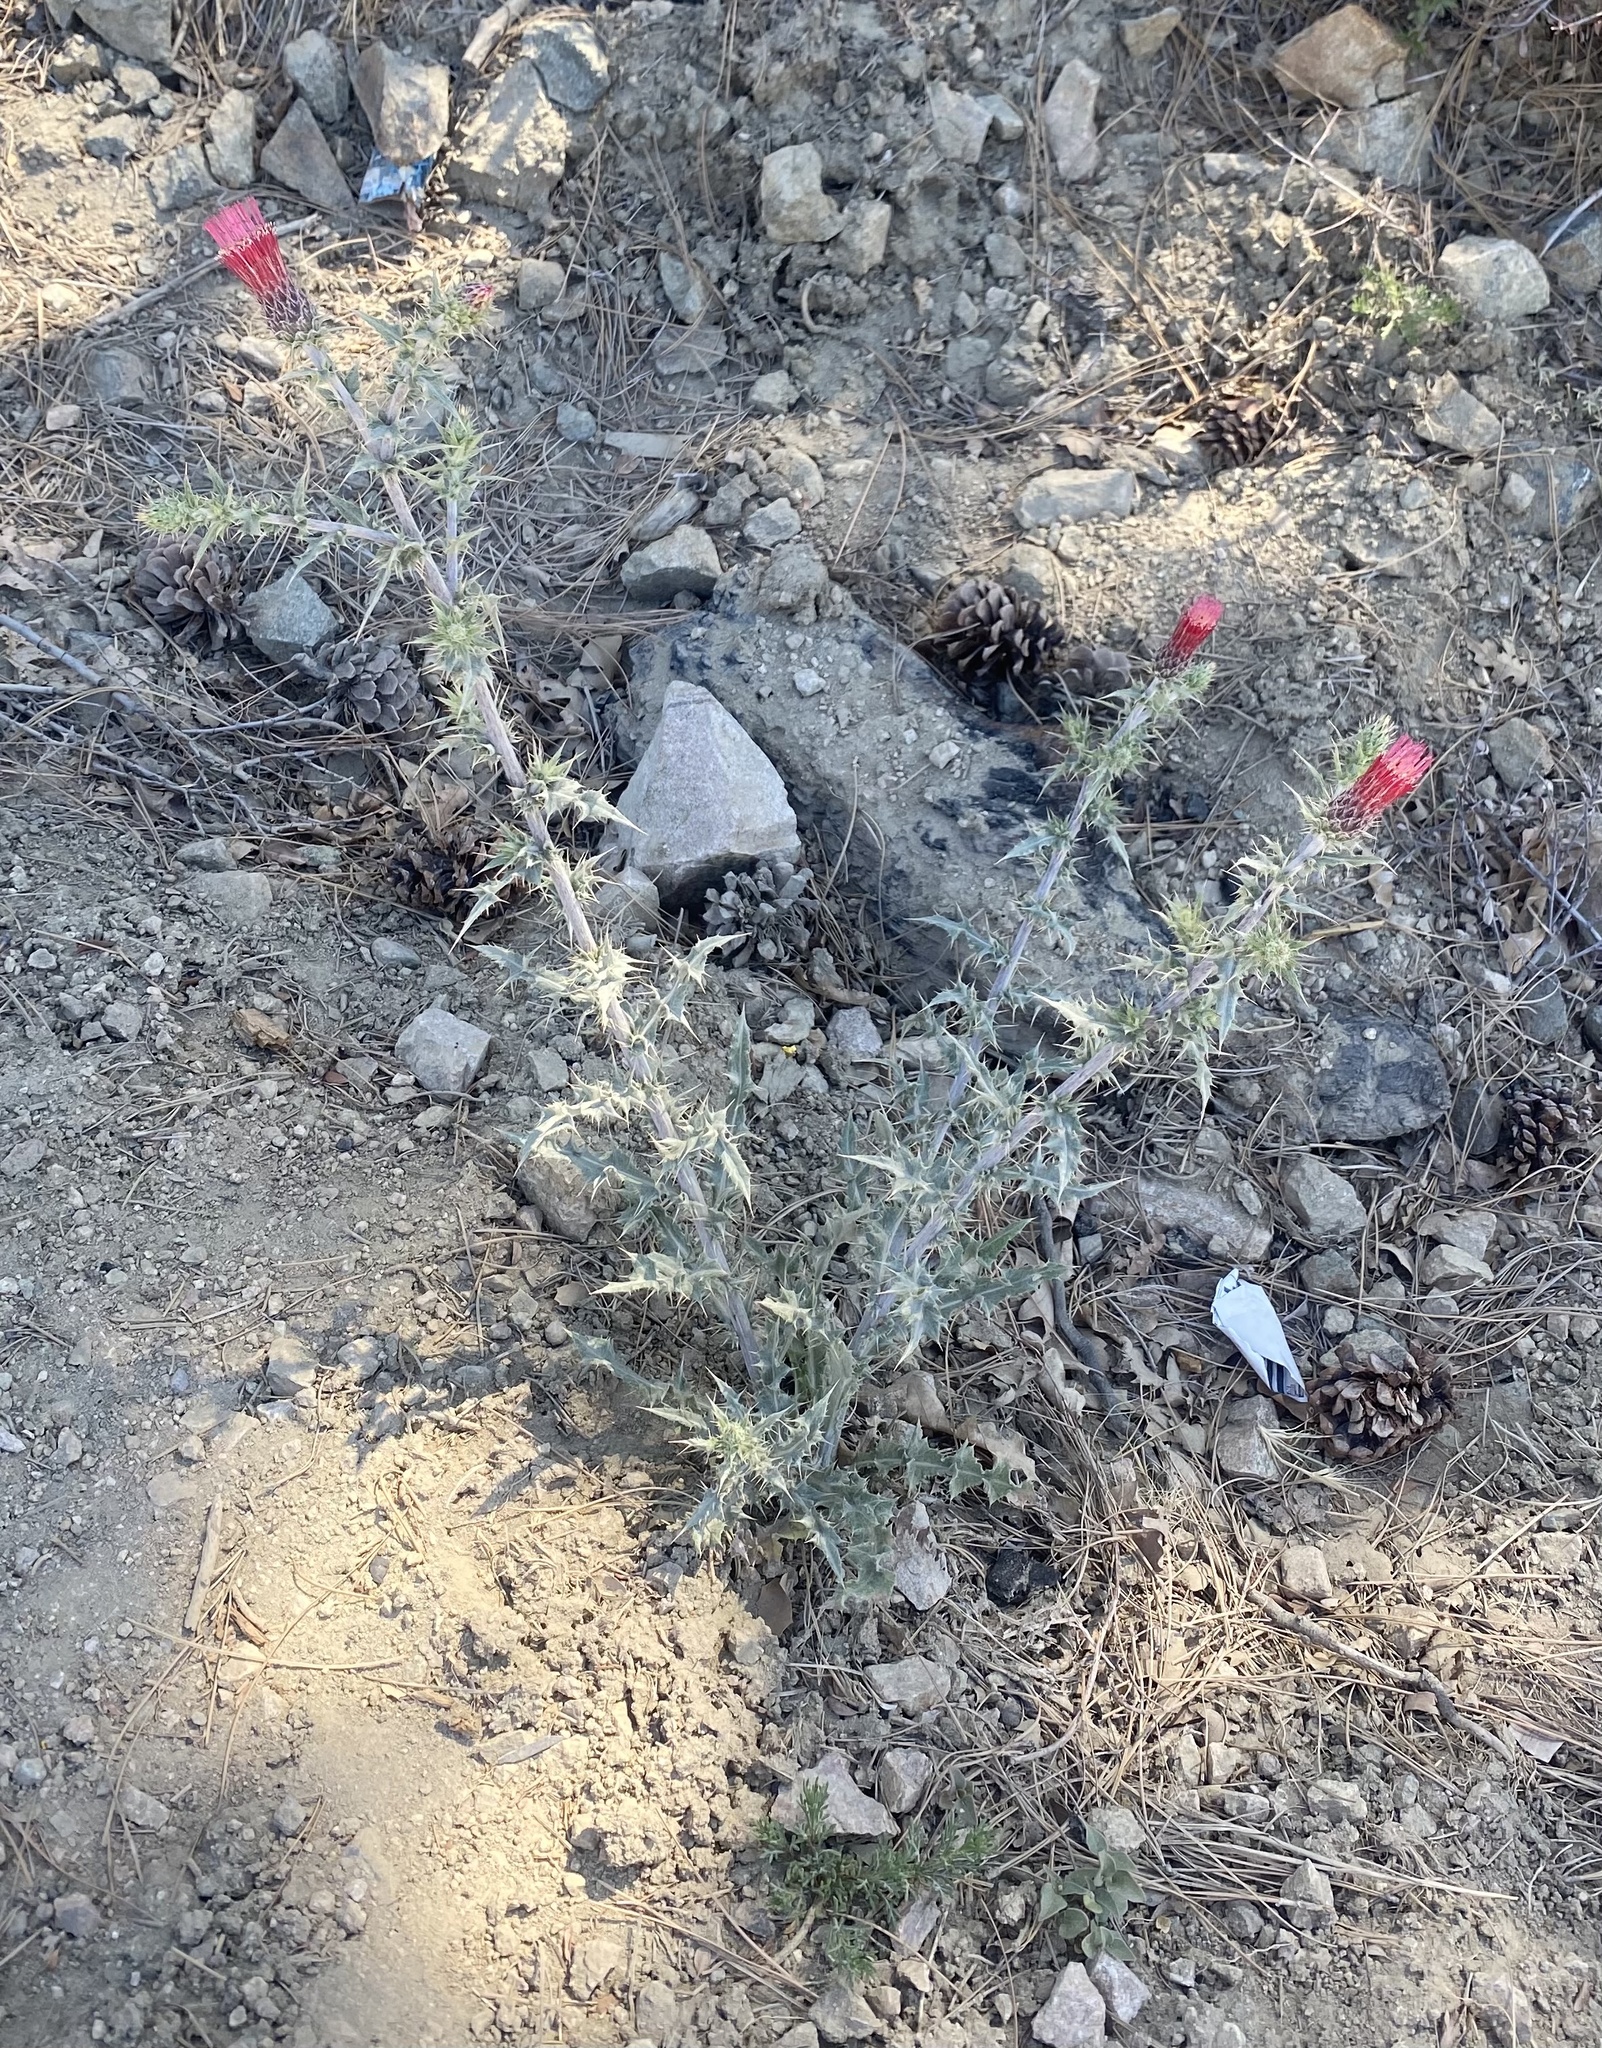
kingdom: Plantae
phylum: Tracheophyta
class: Magnoliopsida
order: Asterales
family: Asteraceae
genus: Cirsium
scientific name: Cirsium arizonicum
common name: Arizona thistle
